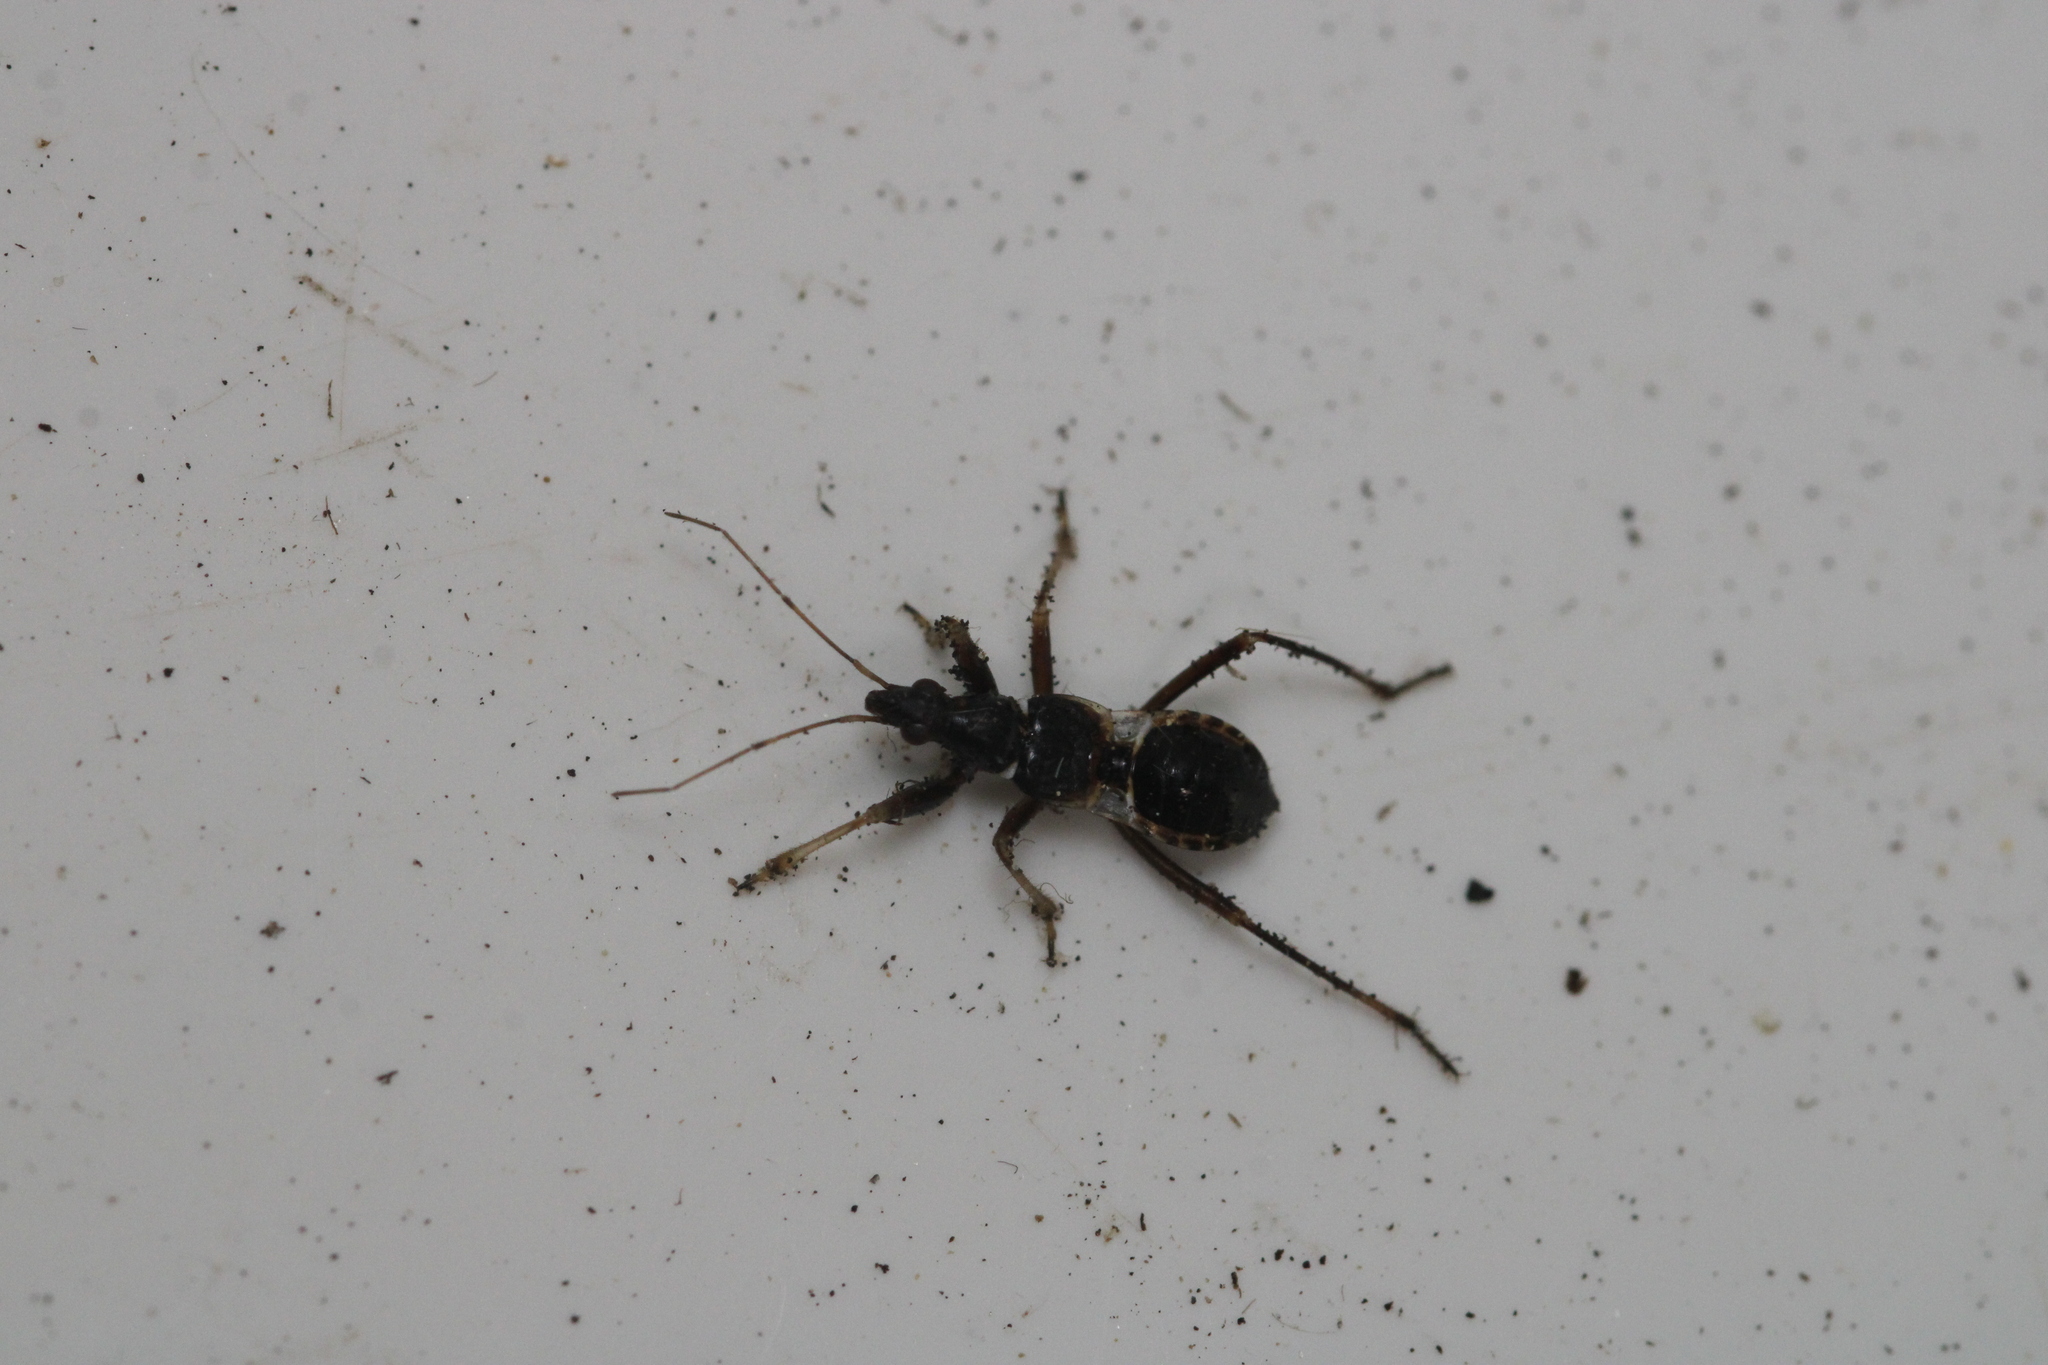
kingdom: Animalia
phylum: Arthropoda
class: Insecta
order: Hemiptera
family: Nabidae
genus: Himacerus
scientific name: Himacerus mirmicoides
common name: Ant damsel bug
